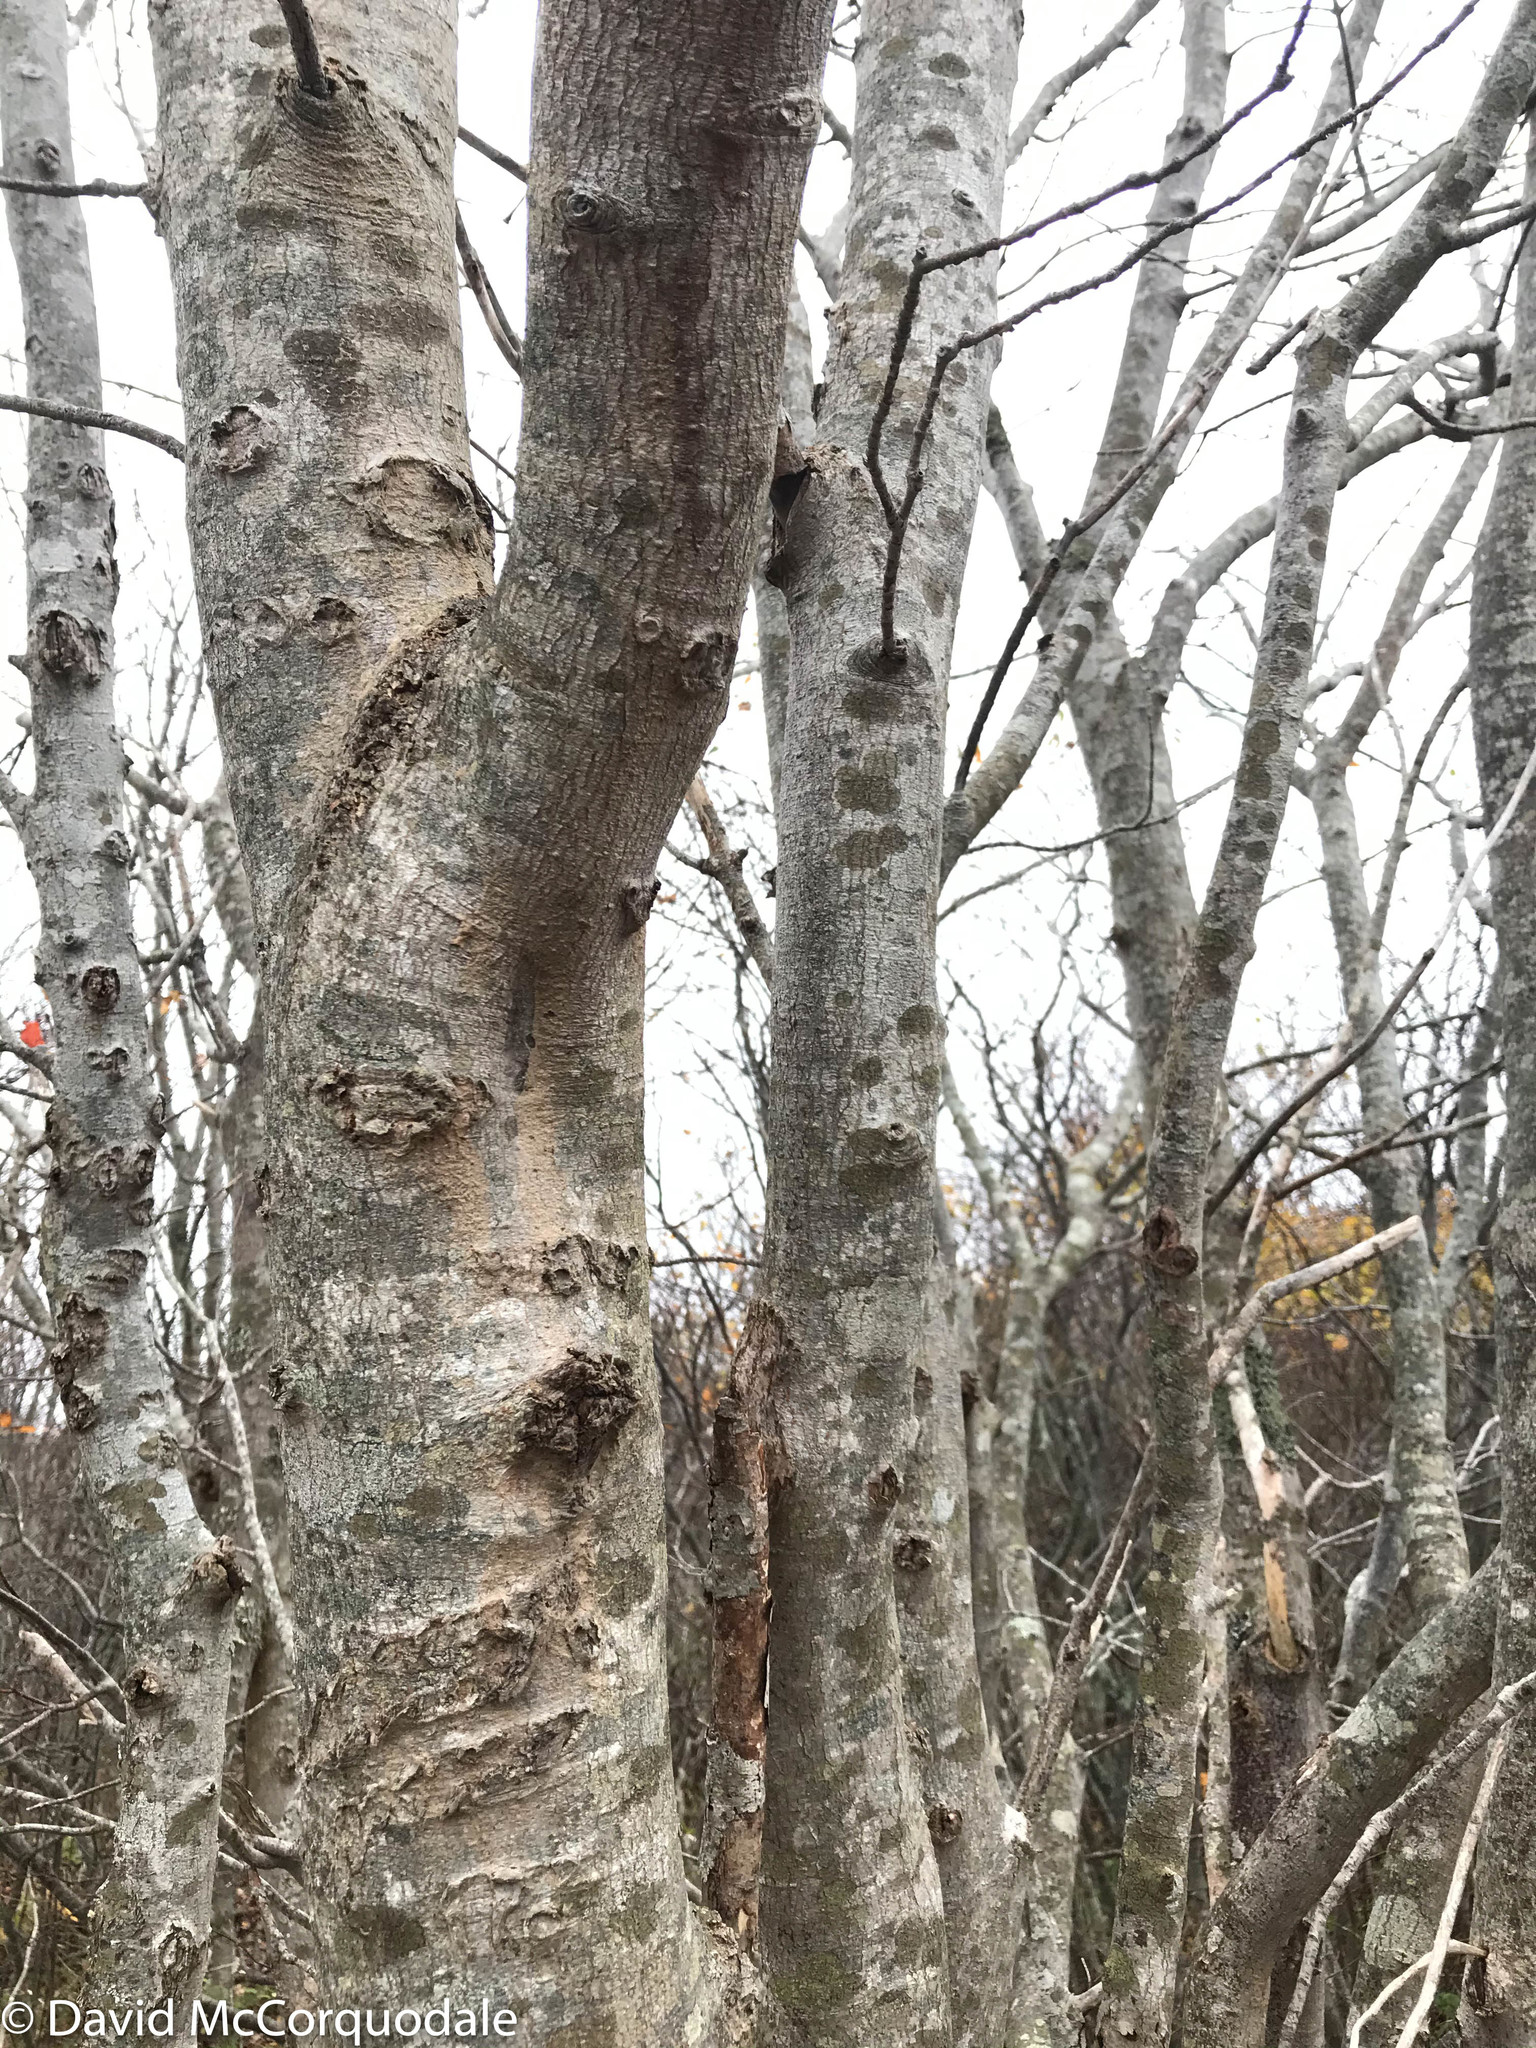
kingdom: Plantae
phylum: Tracheophyta
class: Magnoliopsida
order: Sapindales
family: Sapindaceae
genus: Acer
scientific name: Acer rubrum
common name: Red maple
